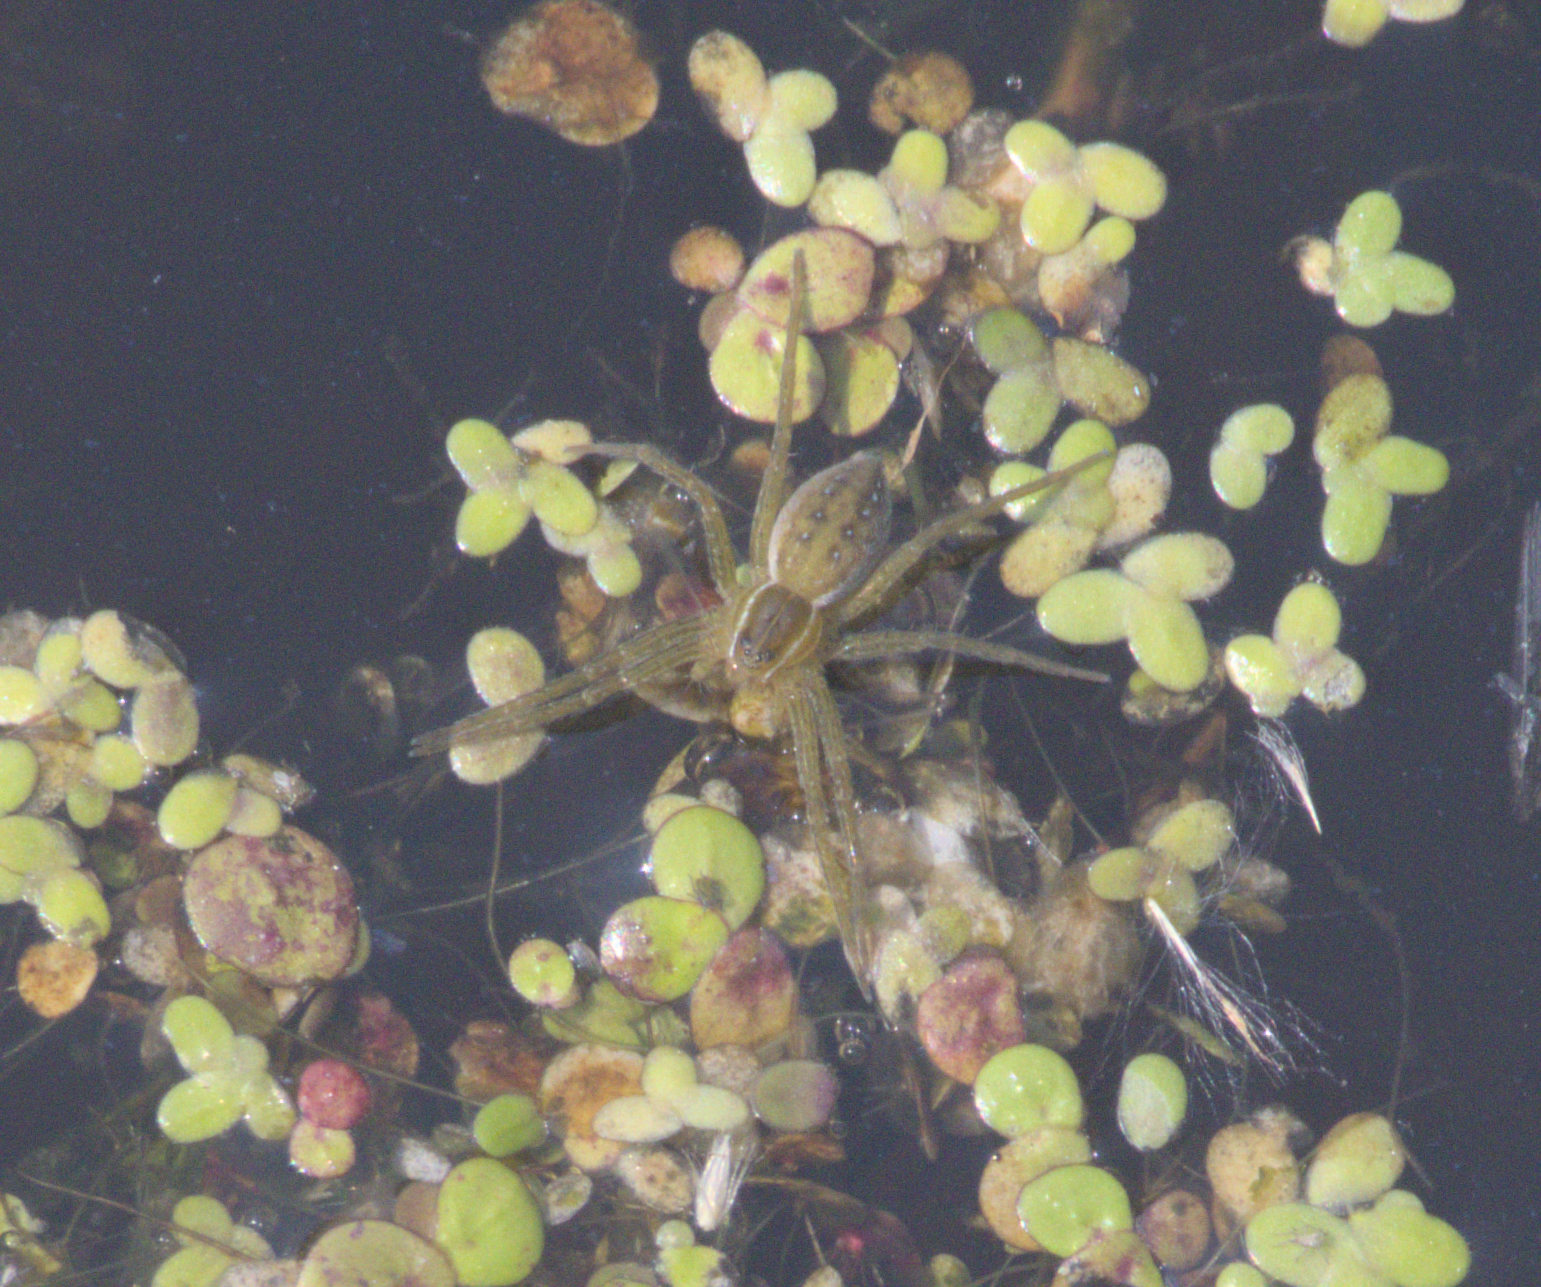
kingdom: Animalia
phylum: Arthropoda
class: Arachnida
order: Araneae
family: Pisauridae
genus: Dolomedes
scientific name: Dolomedes triton
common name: Six-spotted fishing spider
